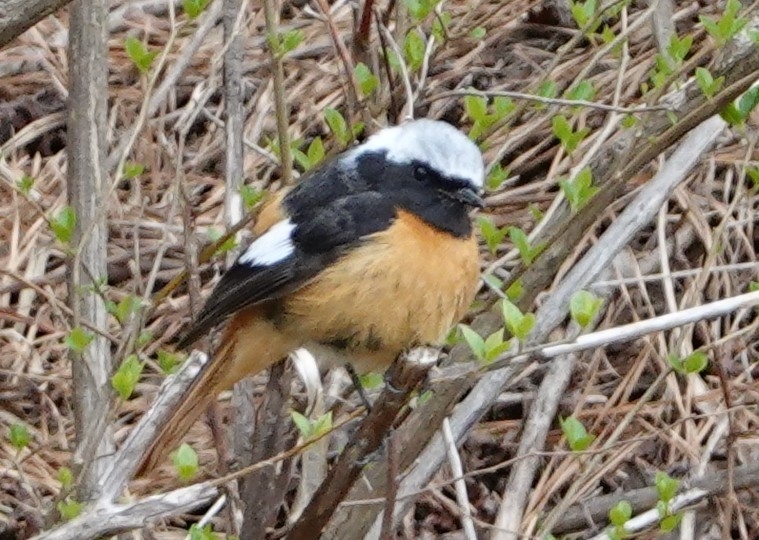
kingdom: Animalia
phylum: Chordata
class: Aves
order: Passeriformes
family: Muscicapidae
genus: Phoenicurus
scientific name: Phoenicurus auroreus
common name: Daurian redstart
